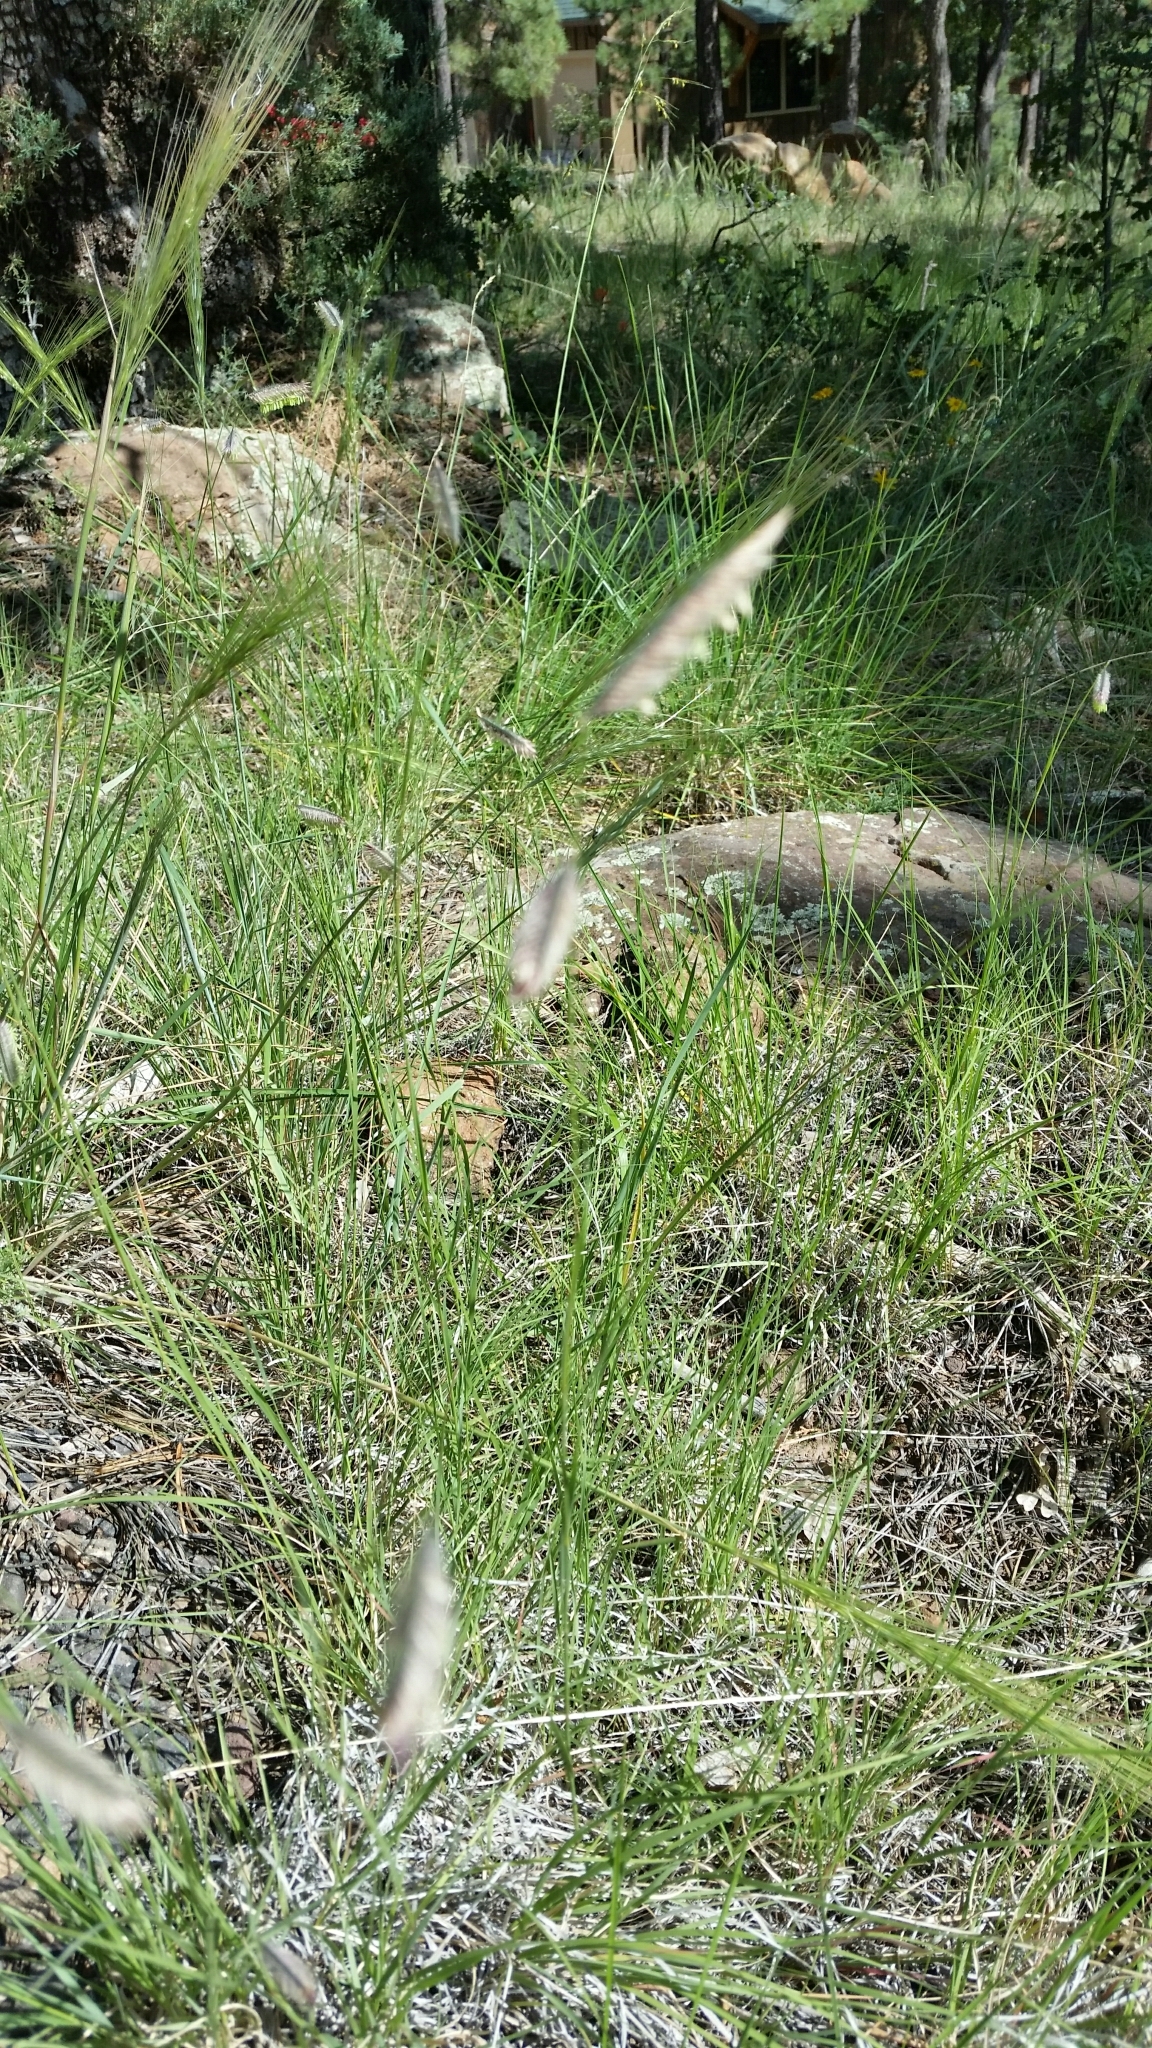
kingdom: Plantae
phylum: Tracheophyta
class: Liliopsida
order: Poales
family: Poaceae
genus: Bouteloua
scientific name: Bouteloua gracilis
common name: Blue grama
